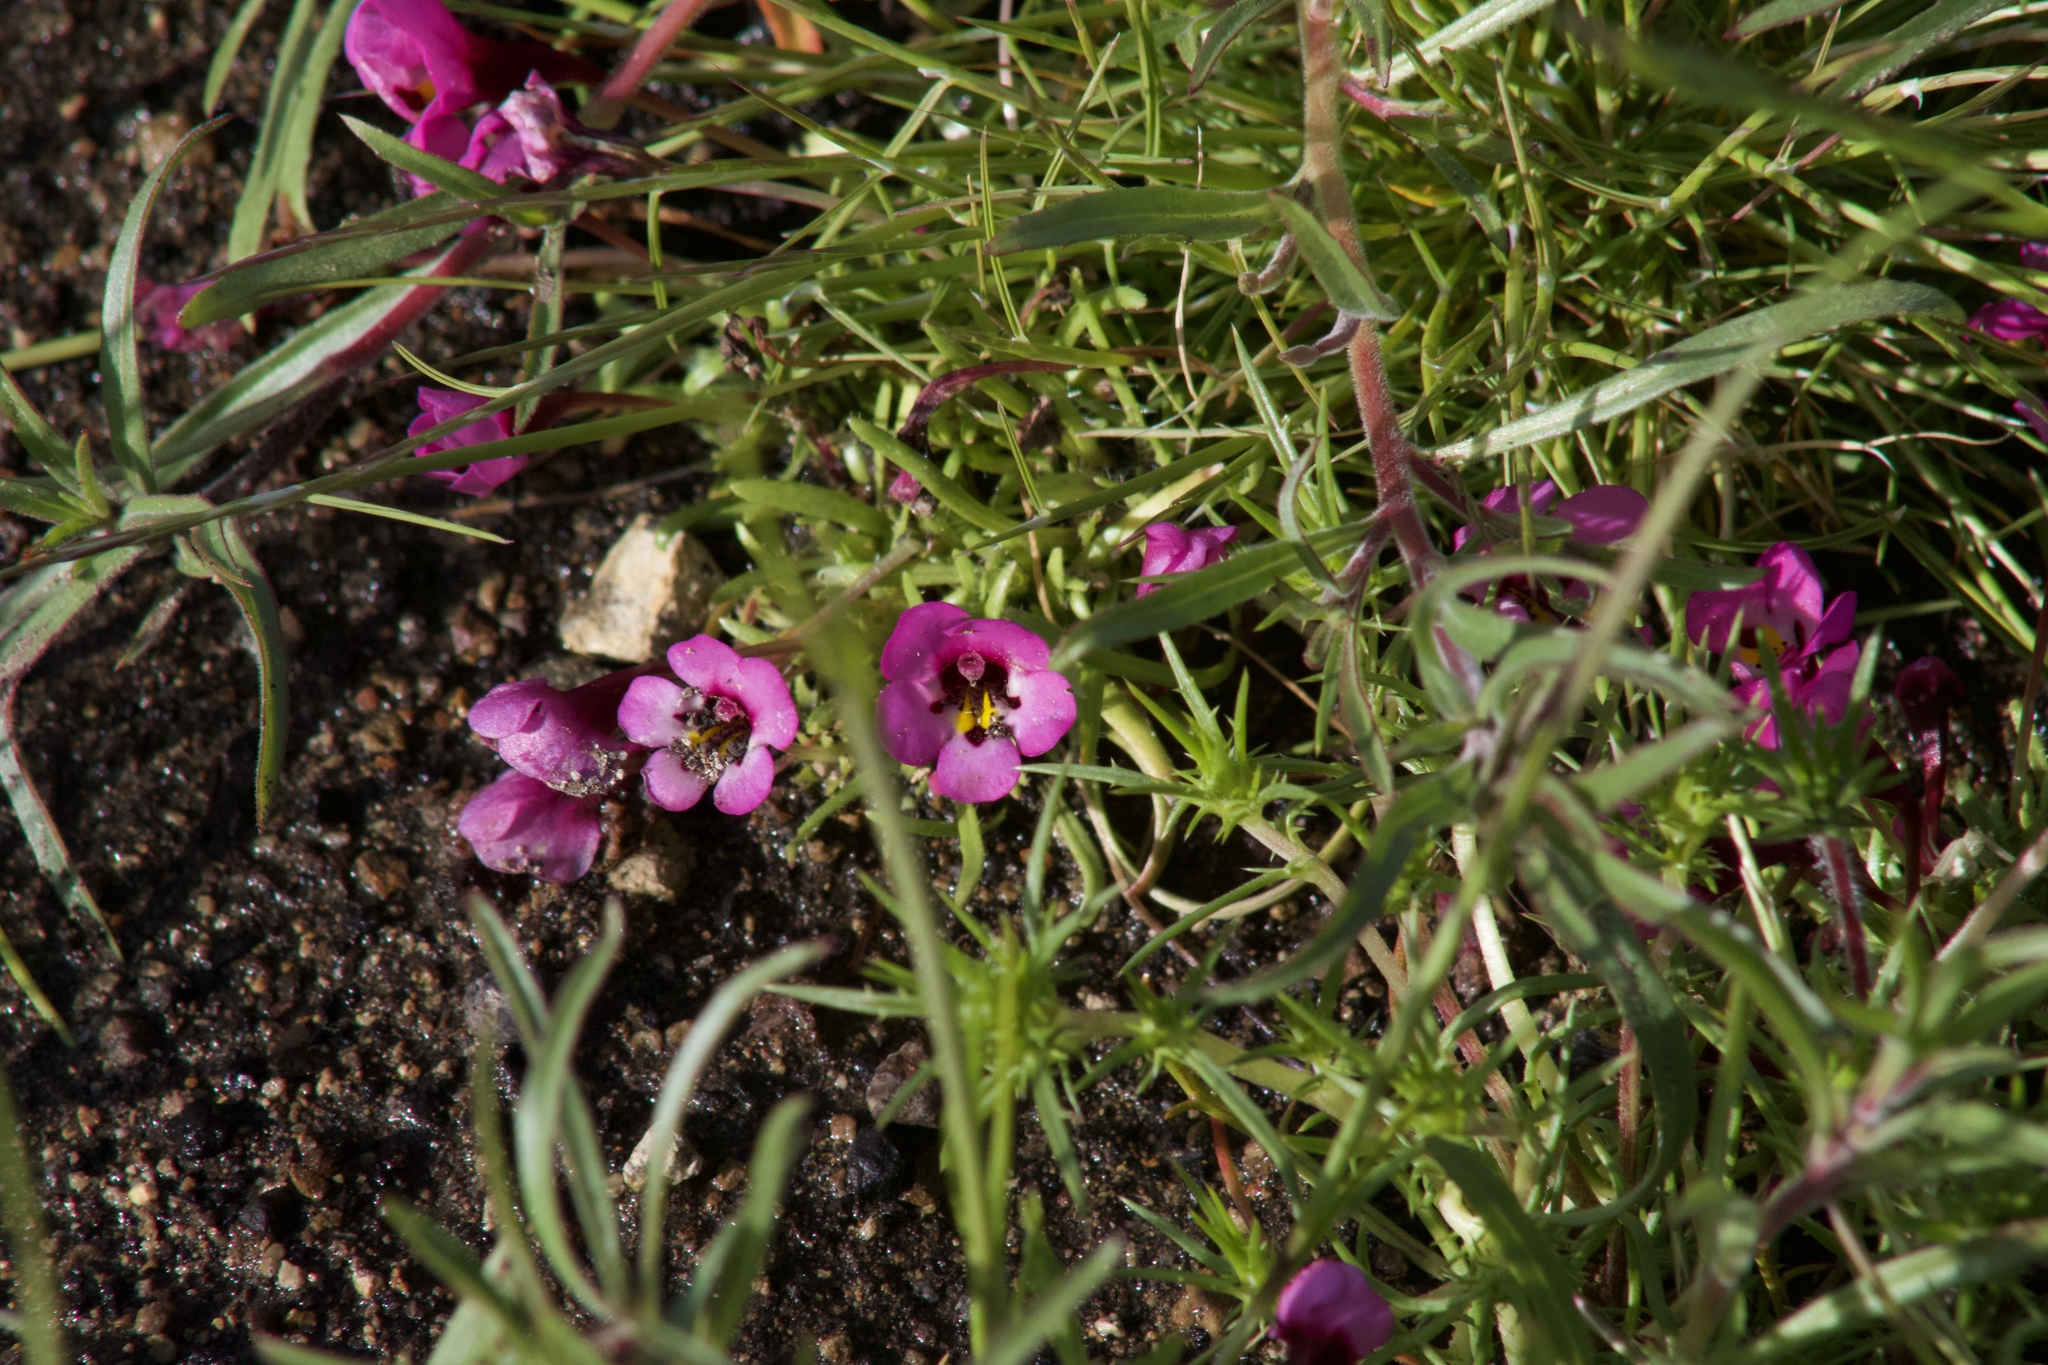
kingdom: Plantae
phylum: Tracheophyta
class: Magnoliopsida
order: Lamiales
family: Phrymaceae
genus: Diplacus
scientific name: Diplacus angustatus
